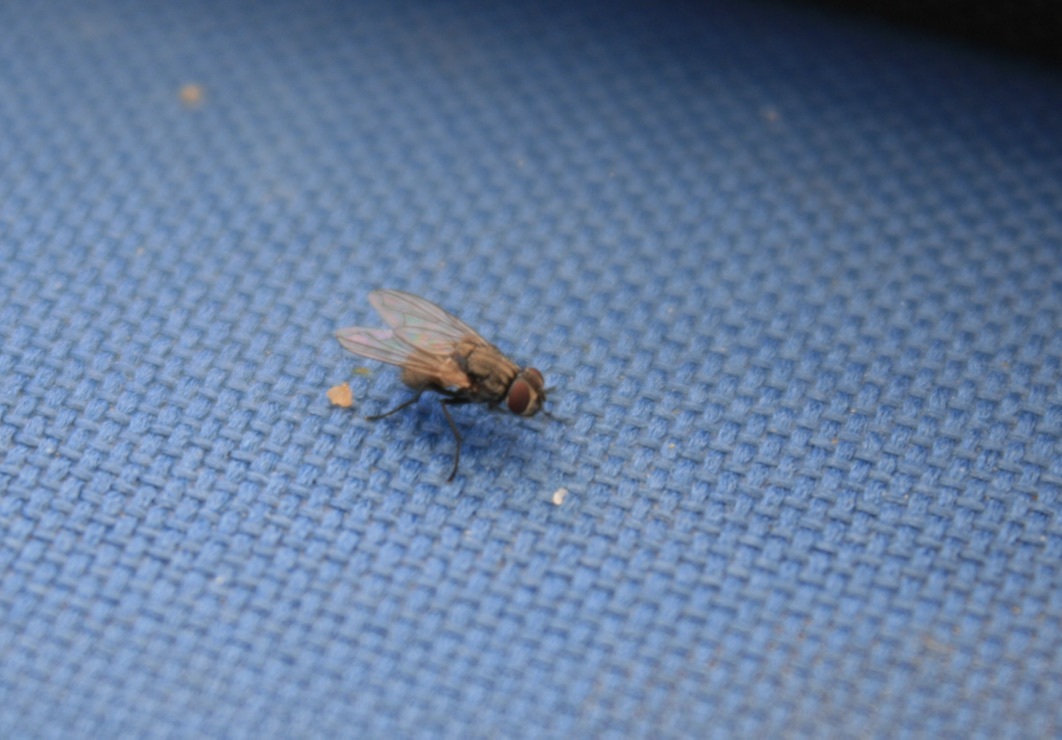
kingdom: Animalia
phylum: Arthropoda
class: Insecta
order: Diptera
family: Muscidae
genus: Musca
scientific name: Musca domestica
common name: House fly
